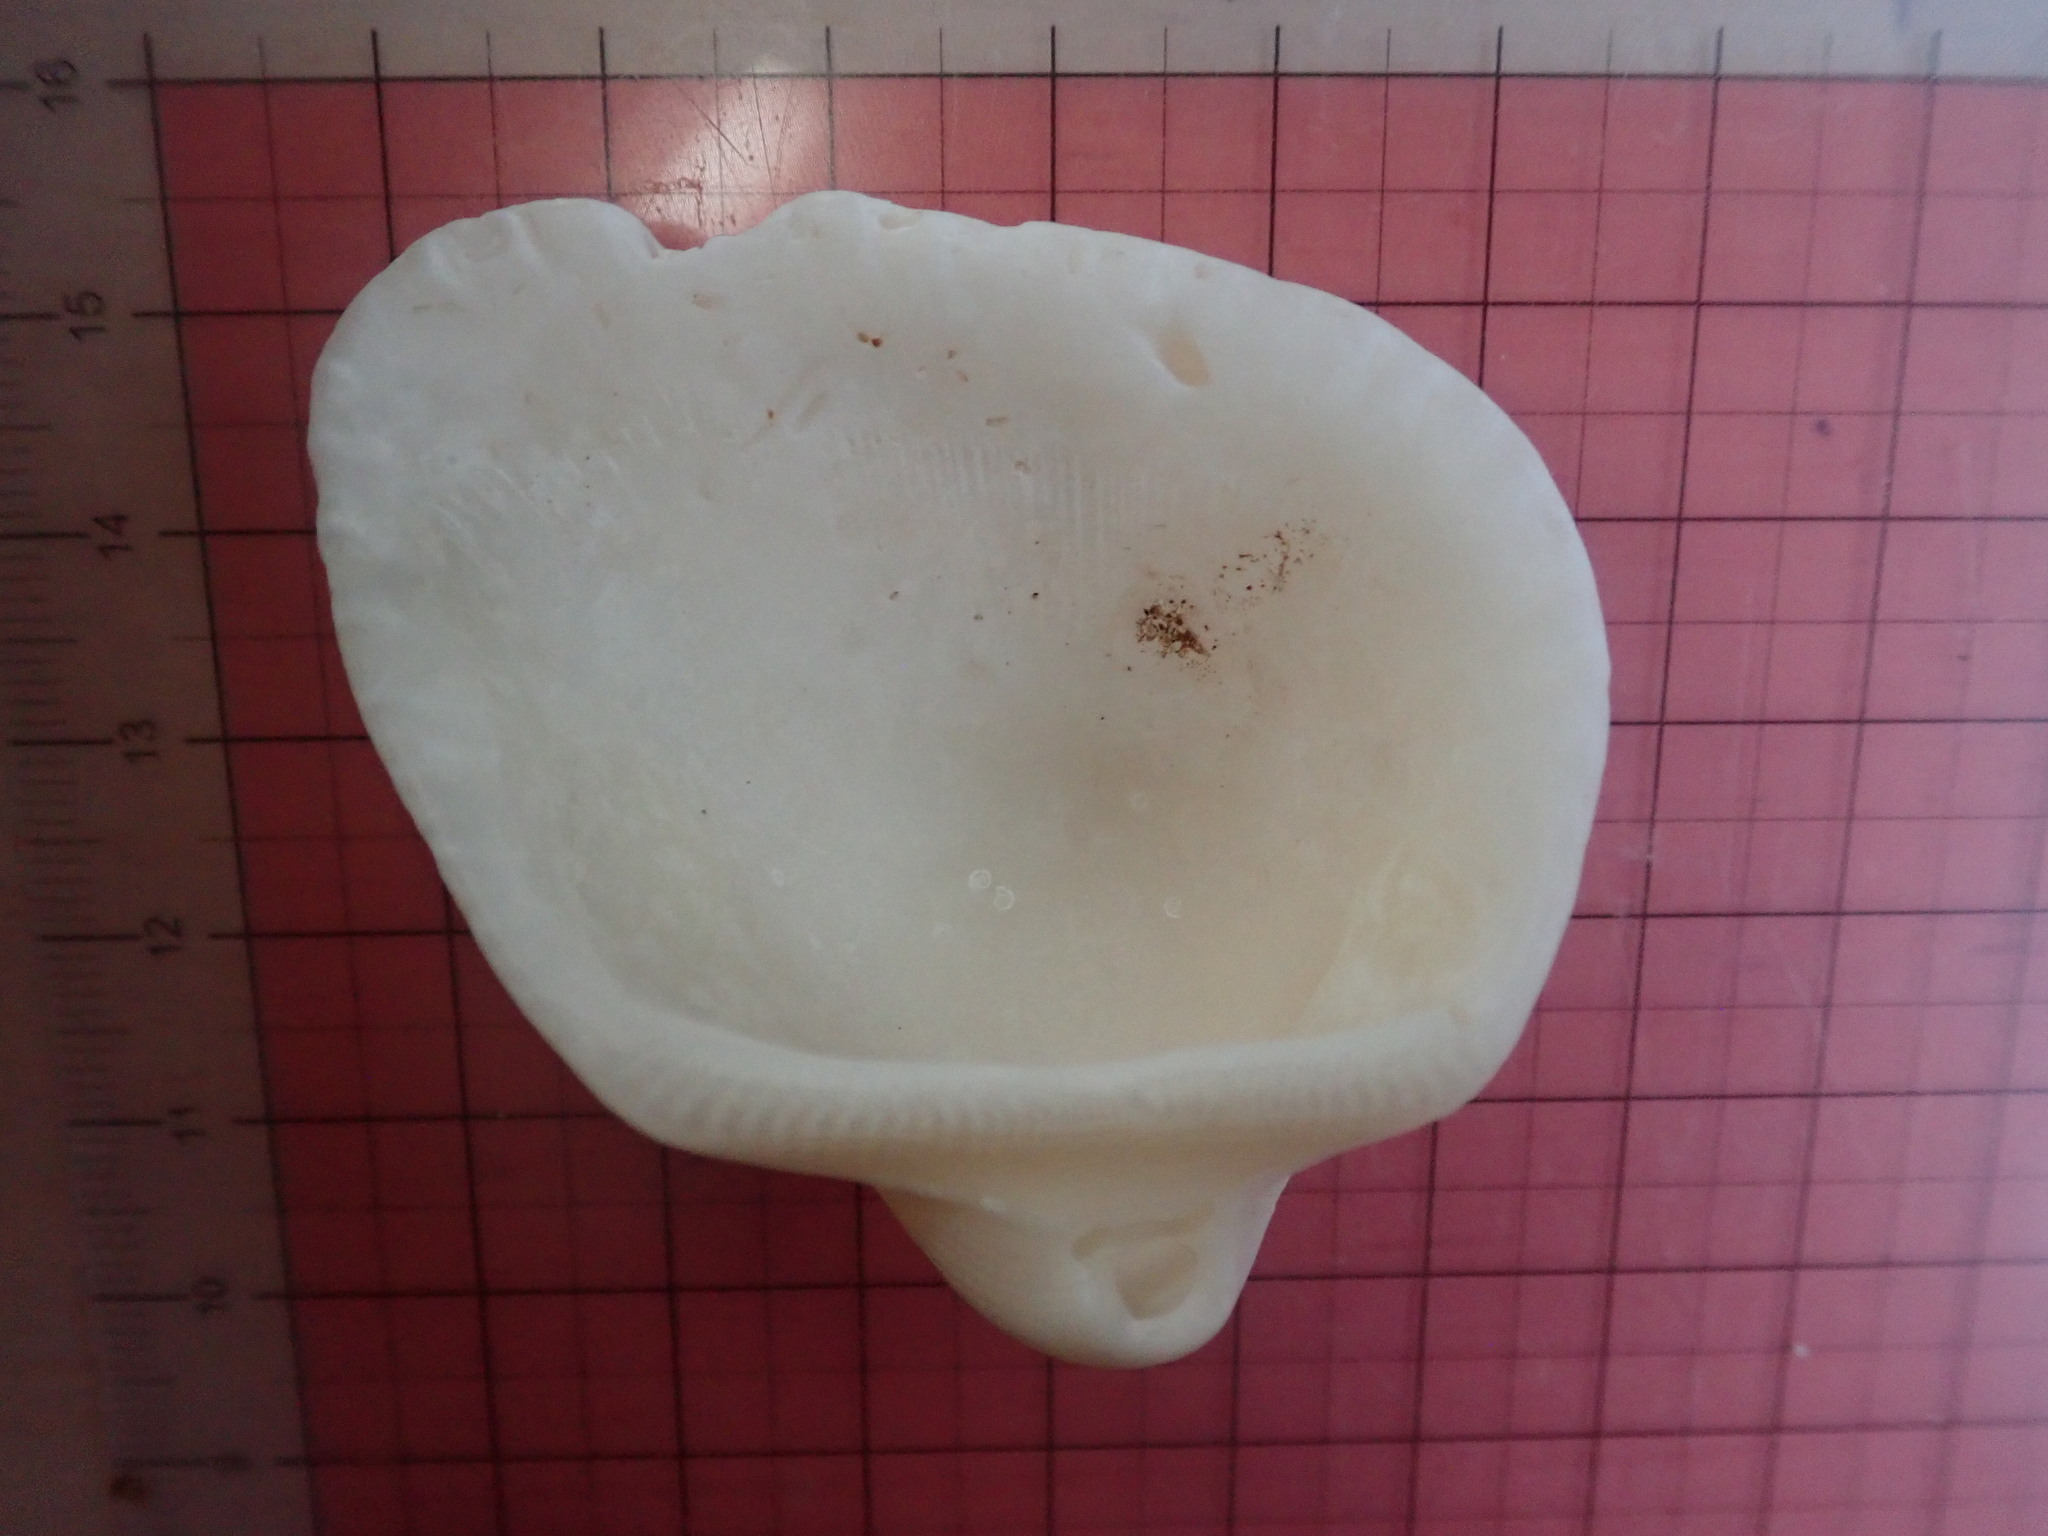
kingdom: Animalia
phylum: Mollusca
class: Bivalvia
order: Arcida
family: Arcidae
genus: Larkinia
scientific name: Larkinia multicostata
